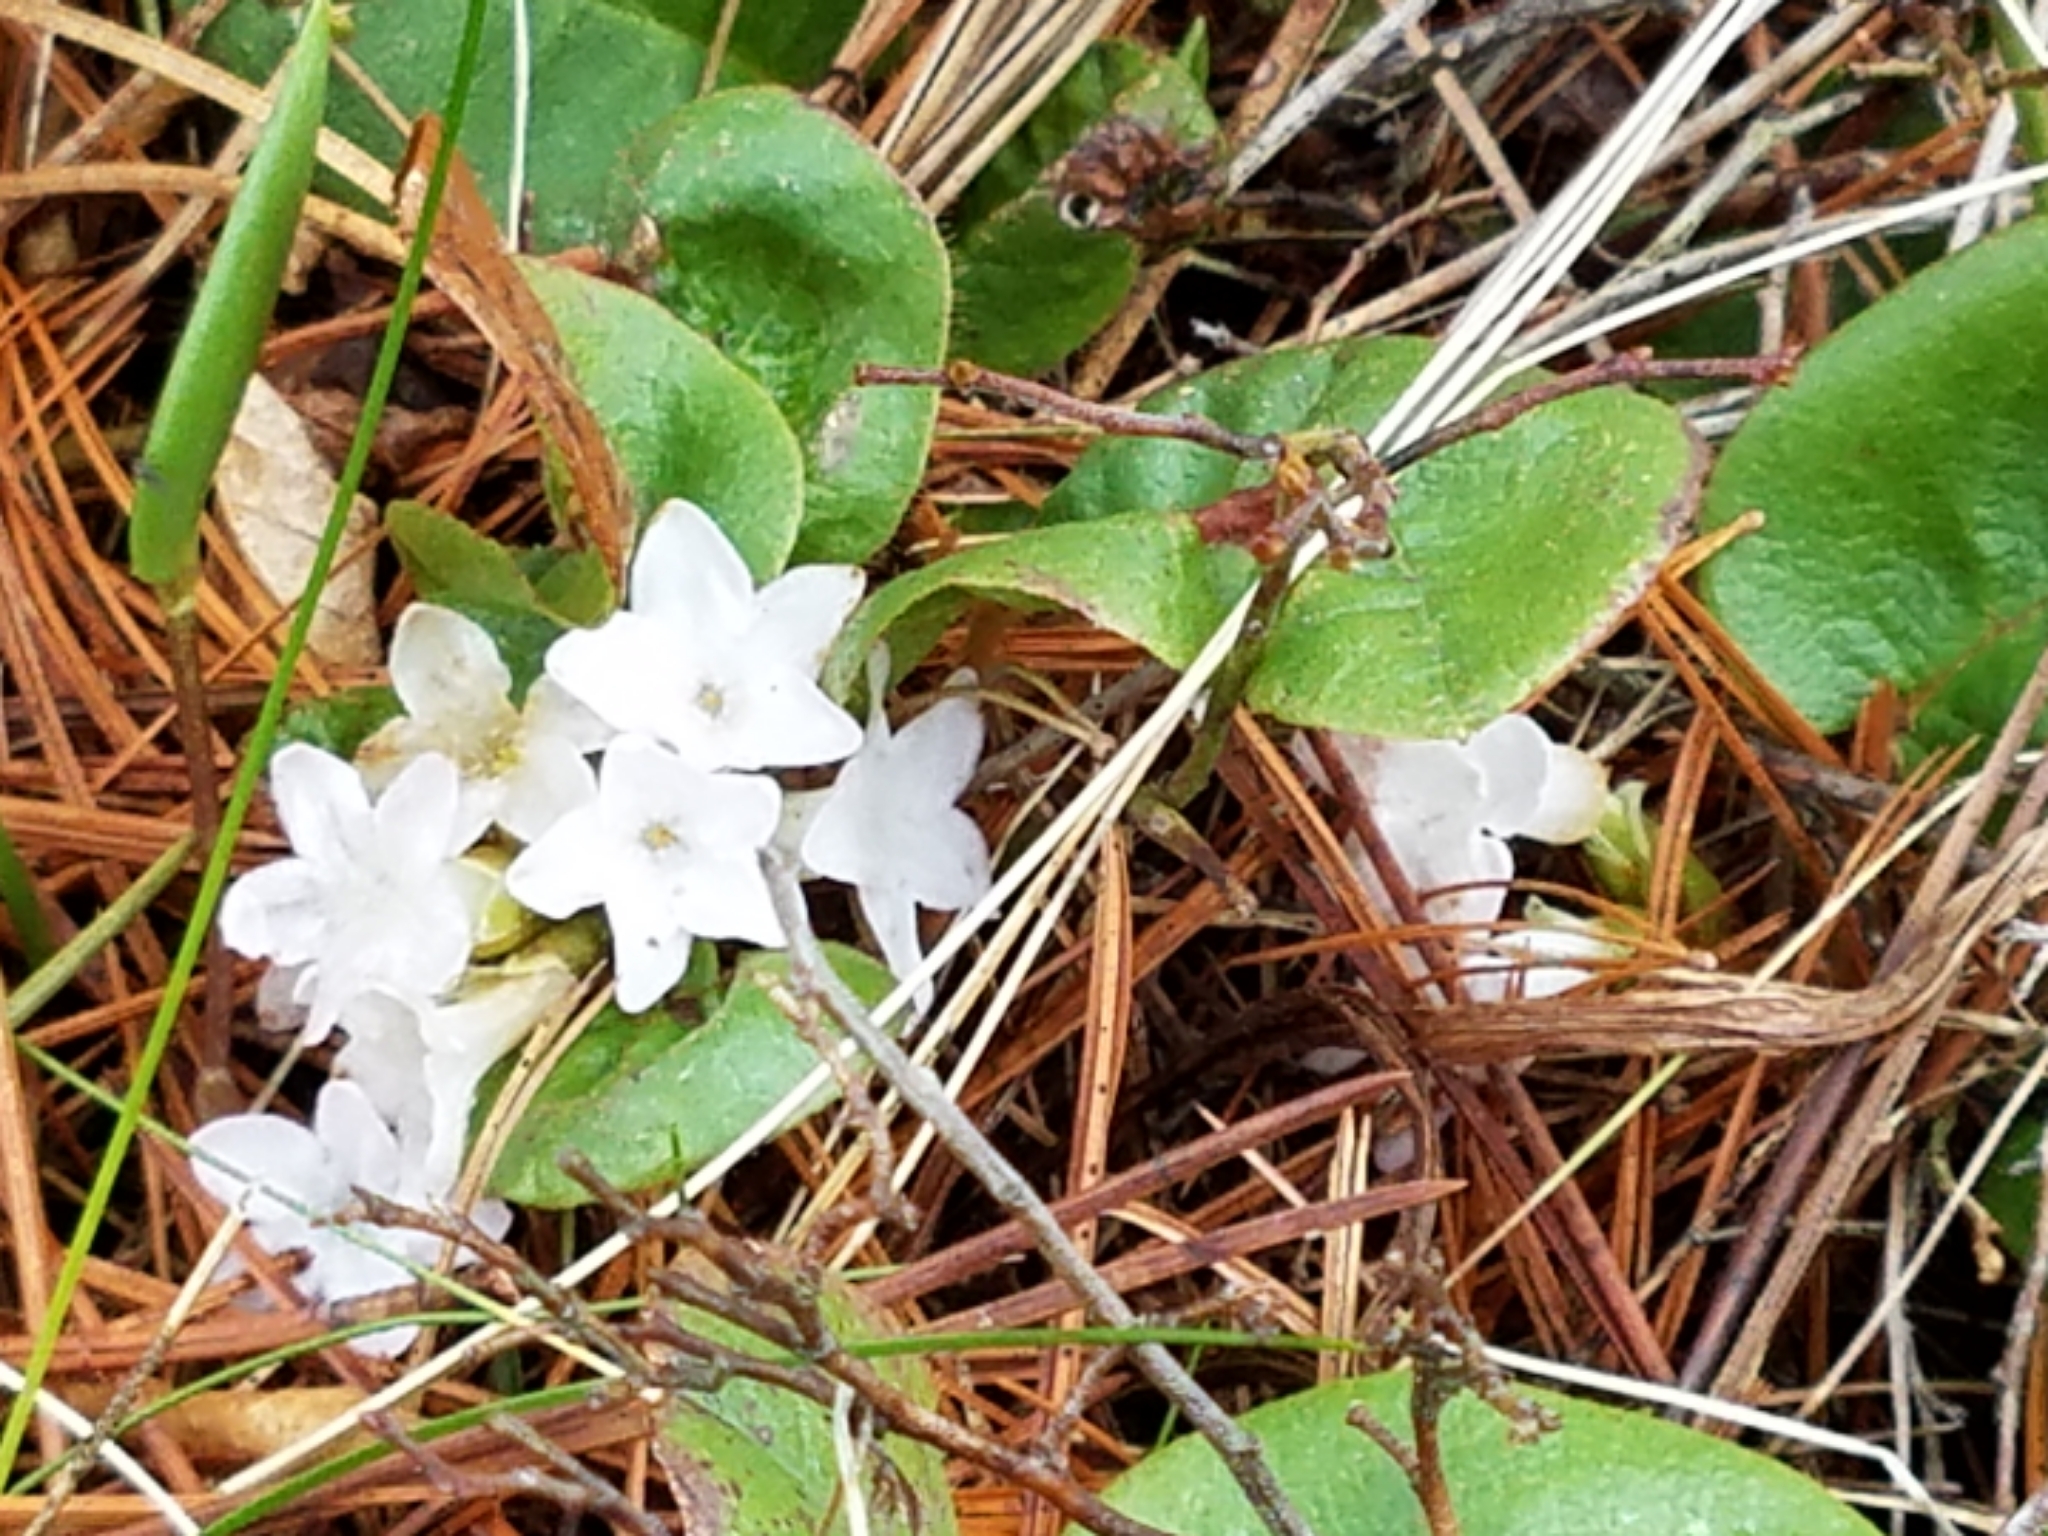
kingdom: Plantae
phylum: Tracheophyta
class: Magnoliopsida
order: Ericales
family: Ericaceae
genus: Epigaea
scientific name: Epigaea repens
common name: Gravelroot
